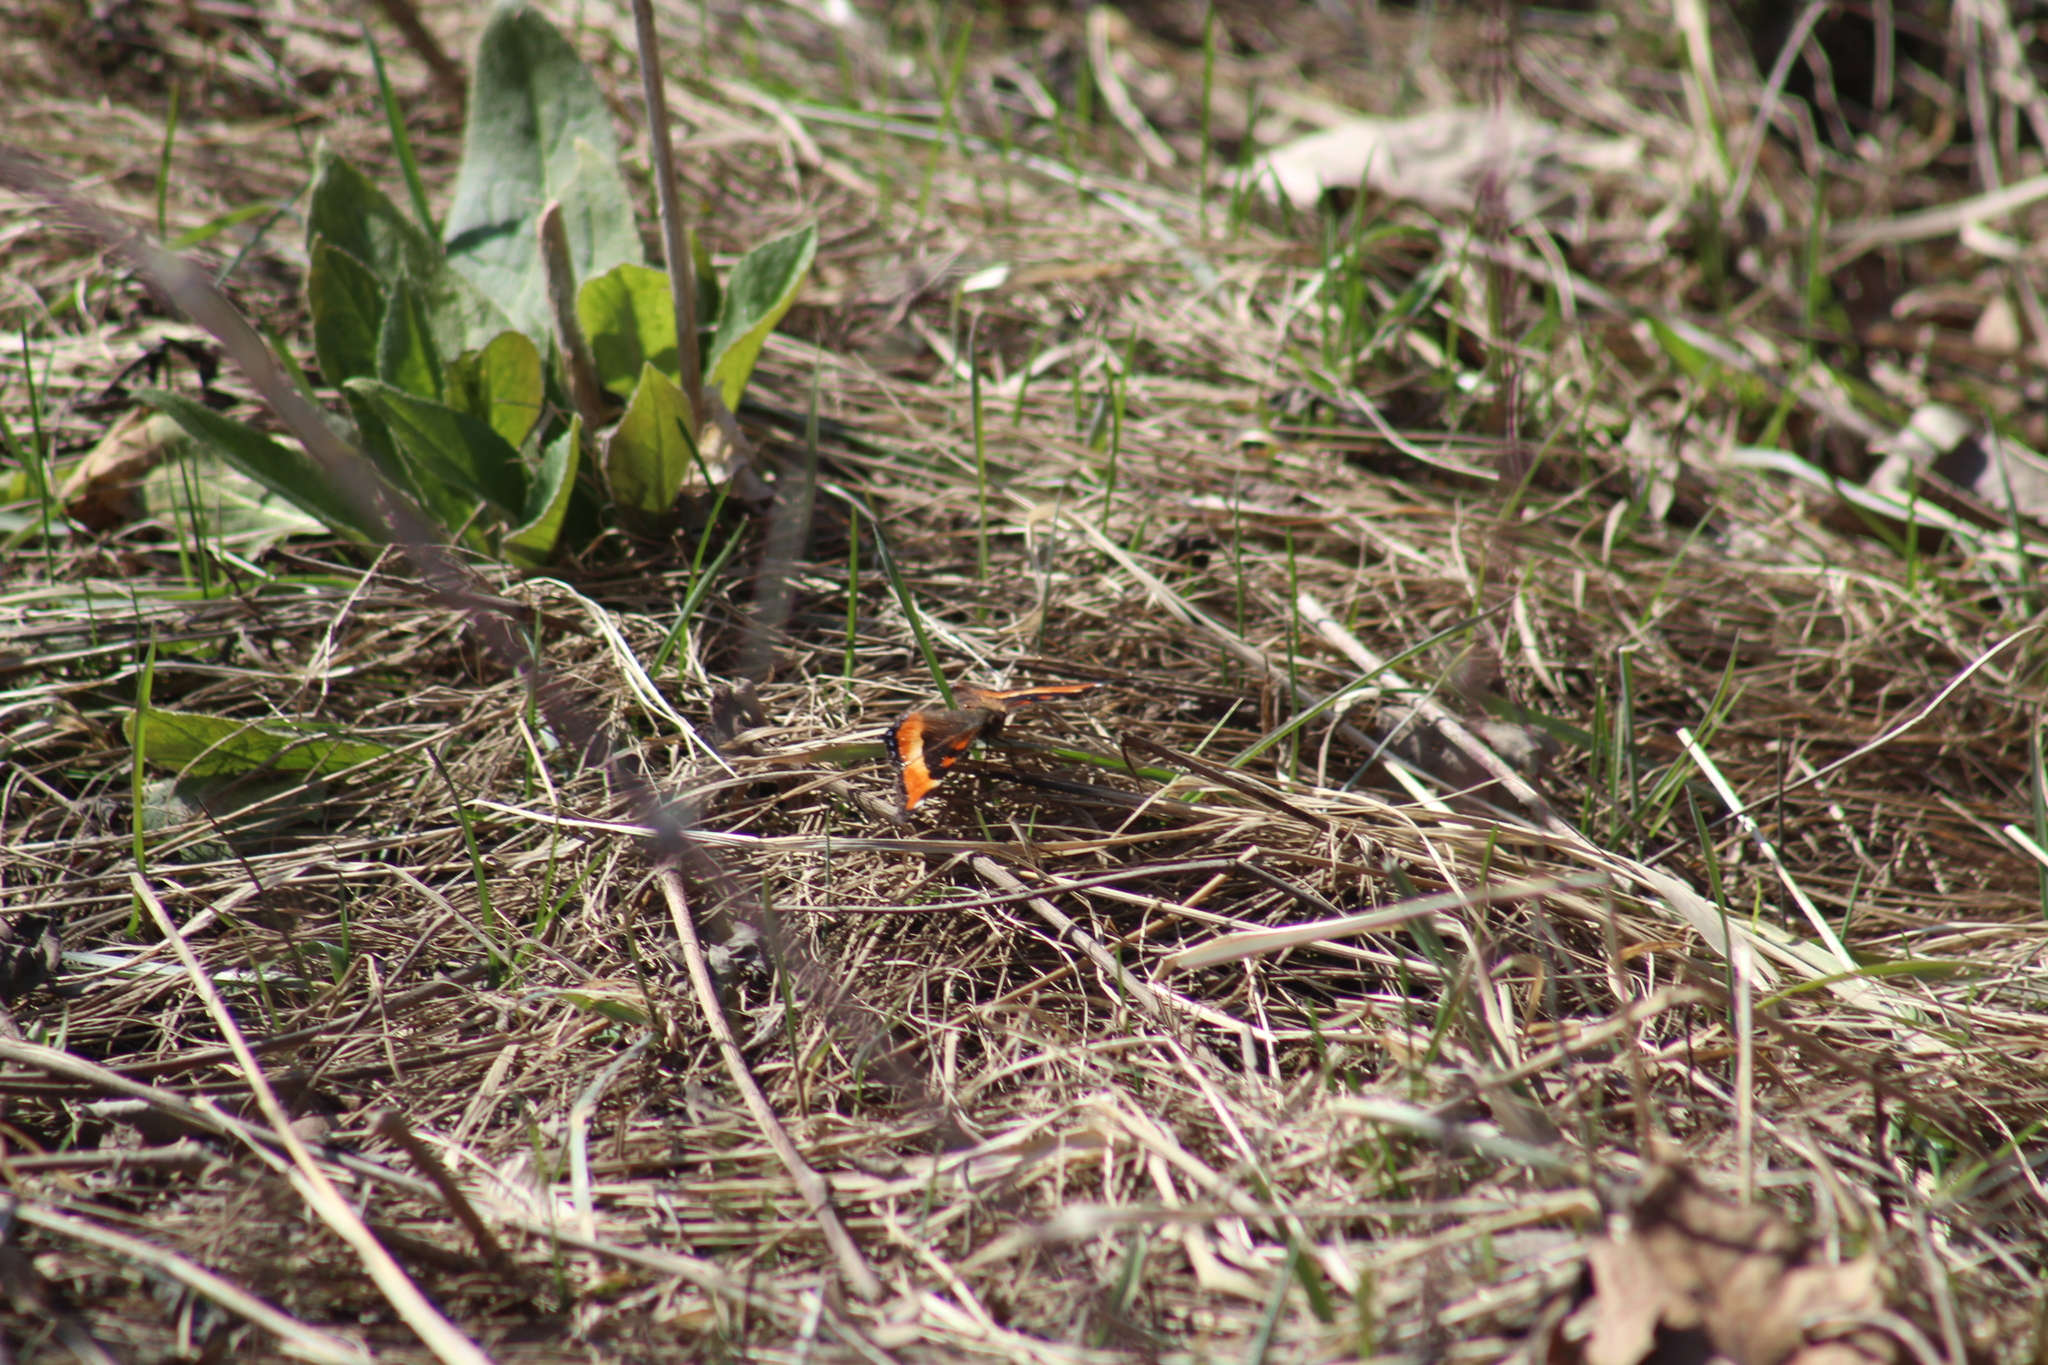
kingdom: Animalia
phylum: Arthropoda
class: Insecta
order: Lepidoptera
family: Nymphalidae
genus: Aglais
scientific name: Aglais milberti
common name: Milbert's tortoiseshell
